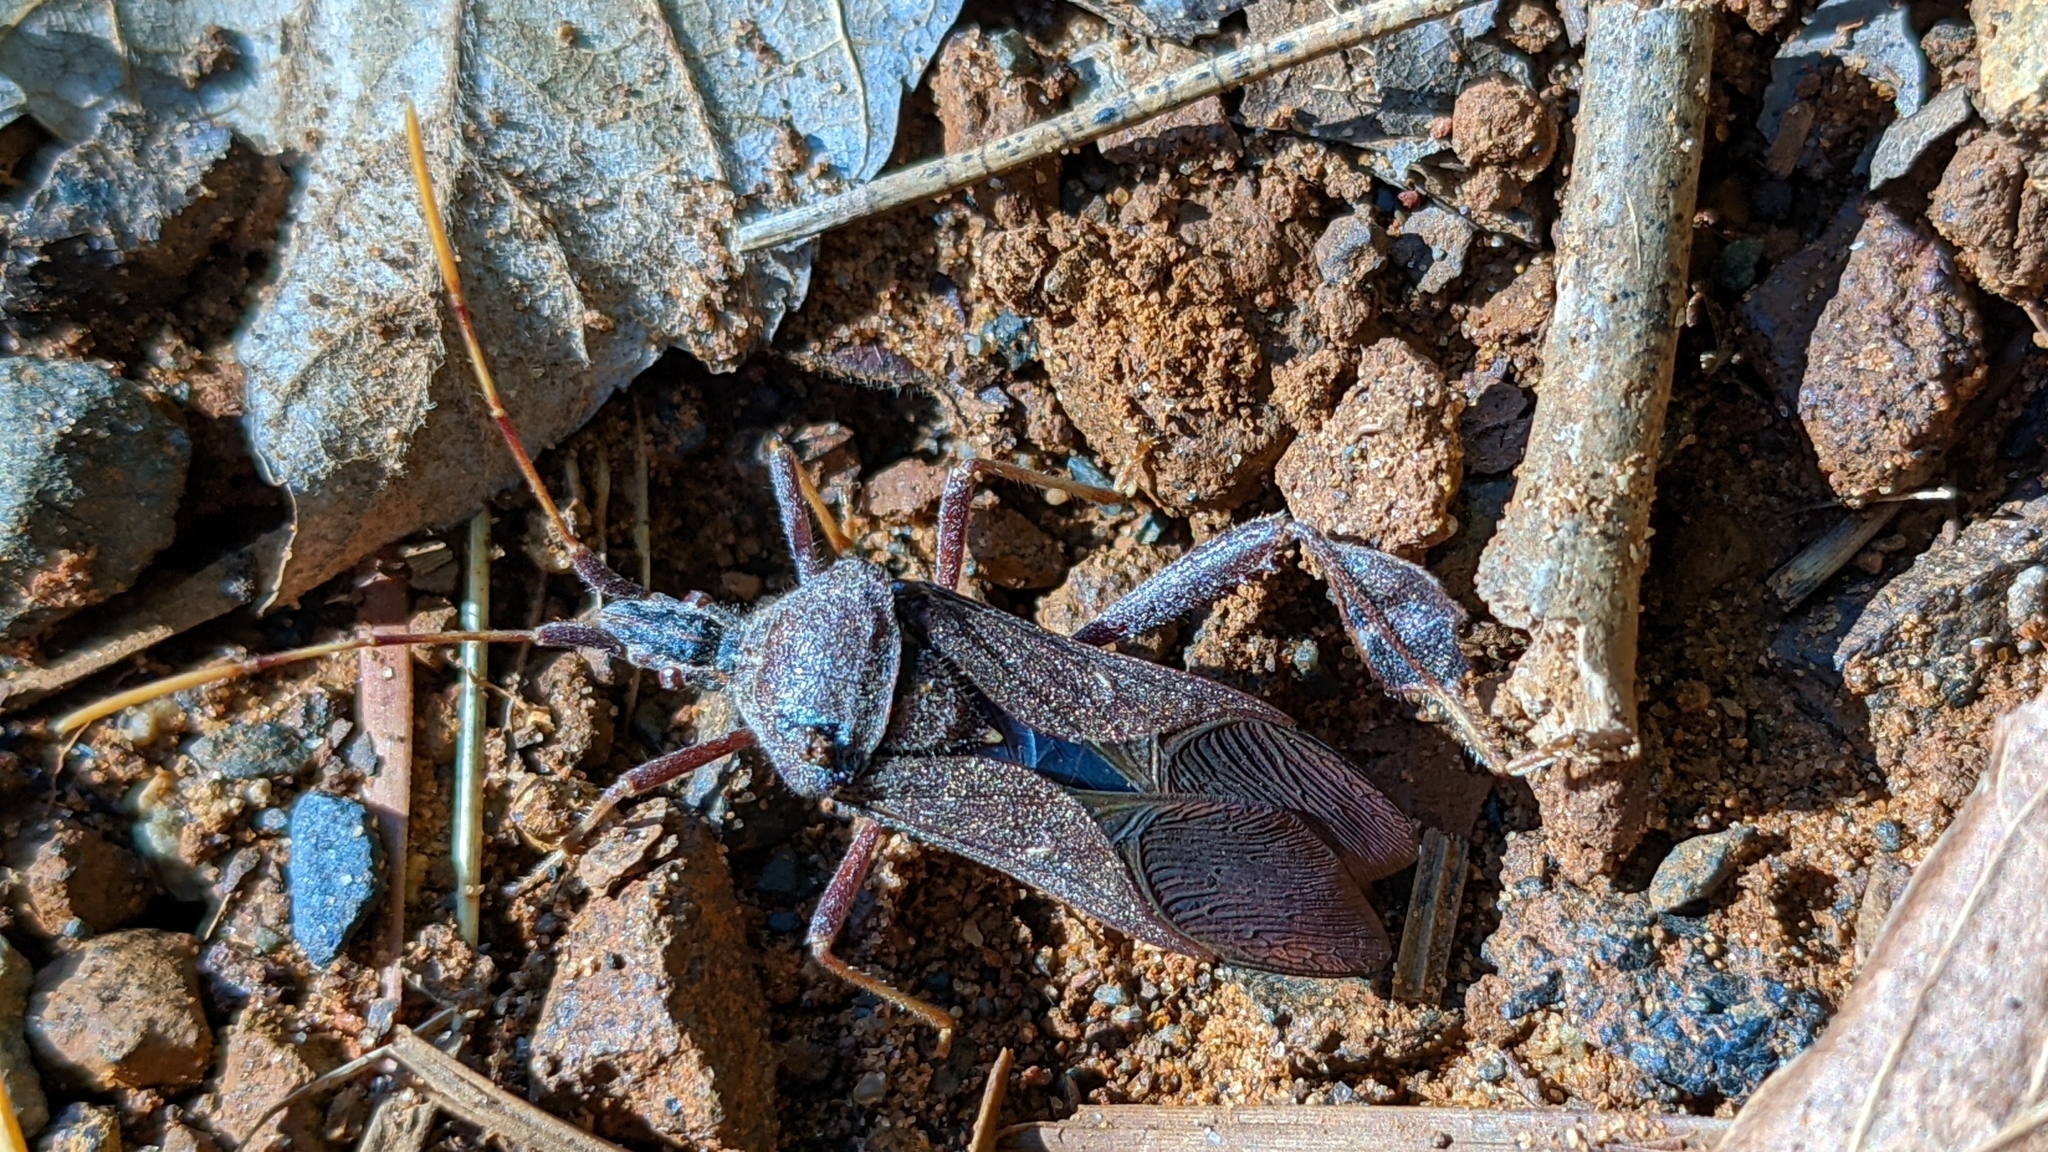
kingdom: Animalia
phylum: Arthropoda
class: Insecta
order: Hemiptera
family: Coreidae
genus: Leptoglossus
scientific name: Leptoglossus oppositus
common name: Northern leaf-footed bug
